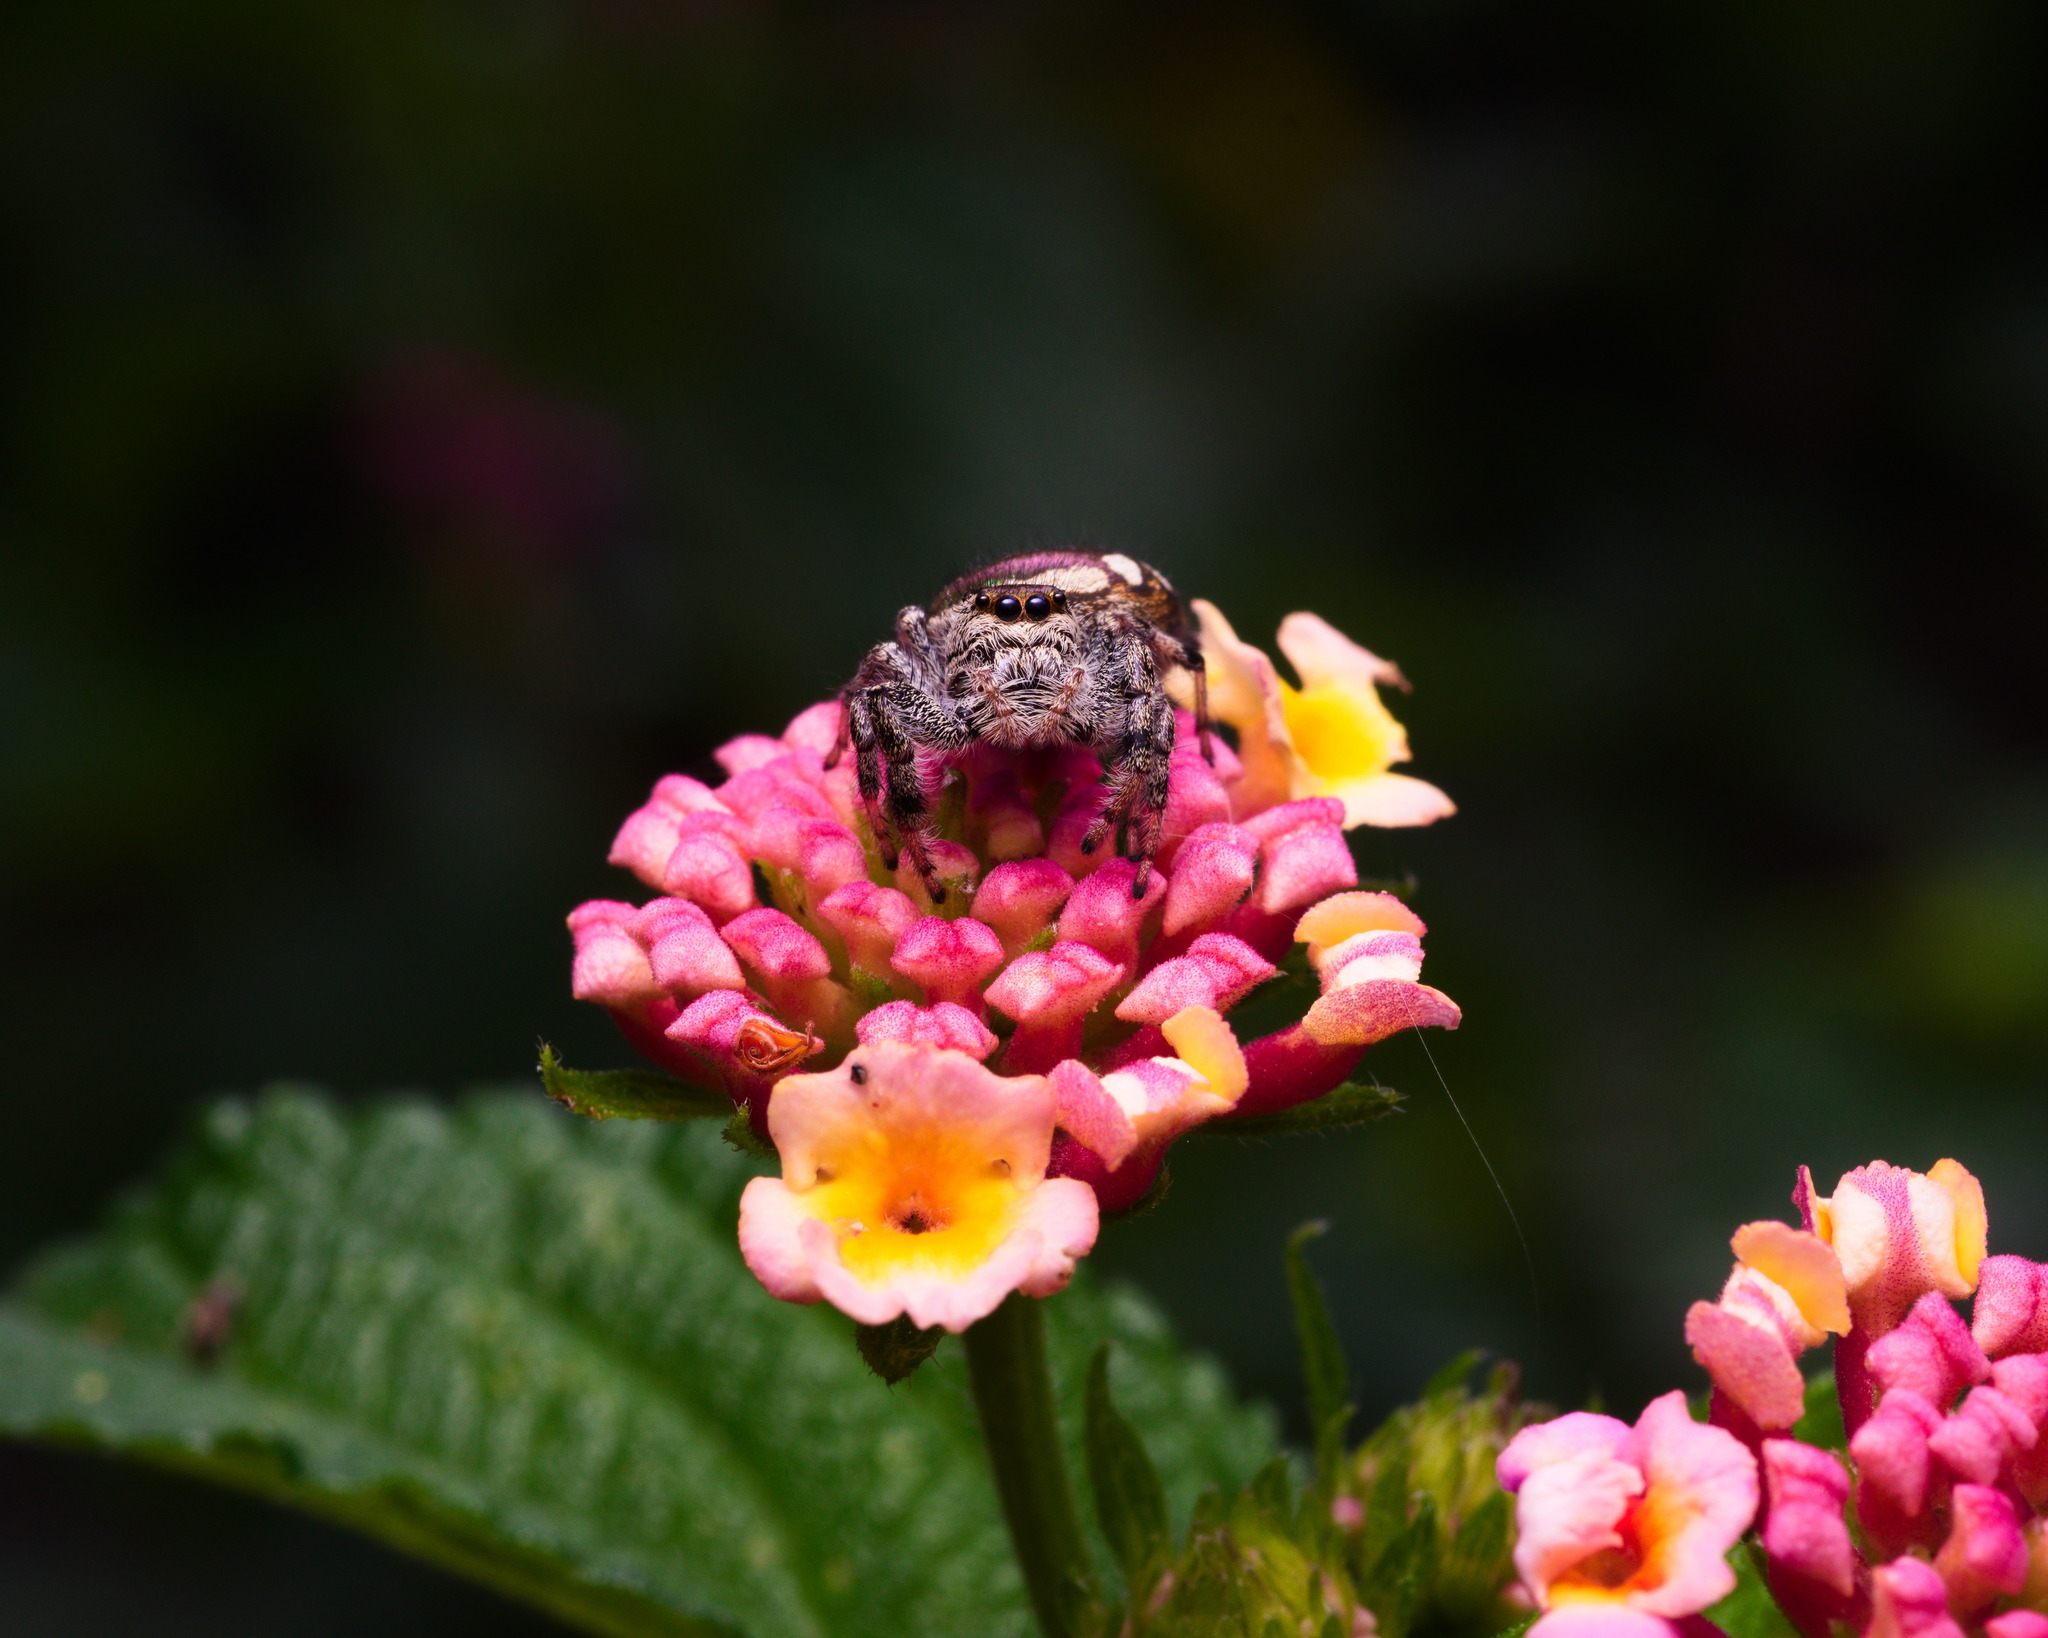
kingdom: Animalia
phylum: Arthropoda
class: Arachnida
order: Araneae
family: Salticidae
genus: Paraphidippus
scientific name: Paraphidippus aurantius
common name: Jumping spiders
